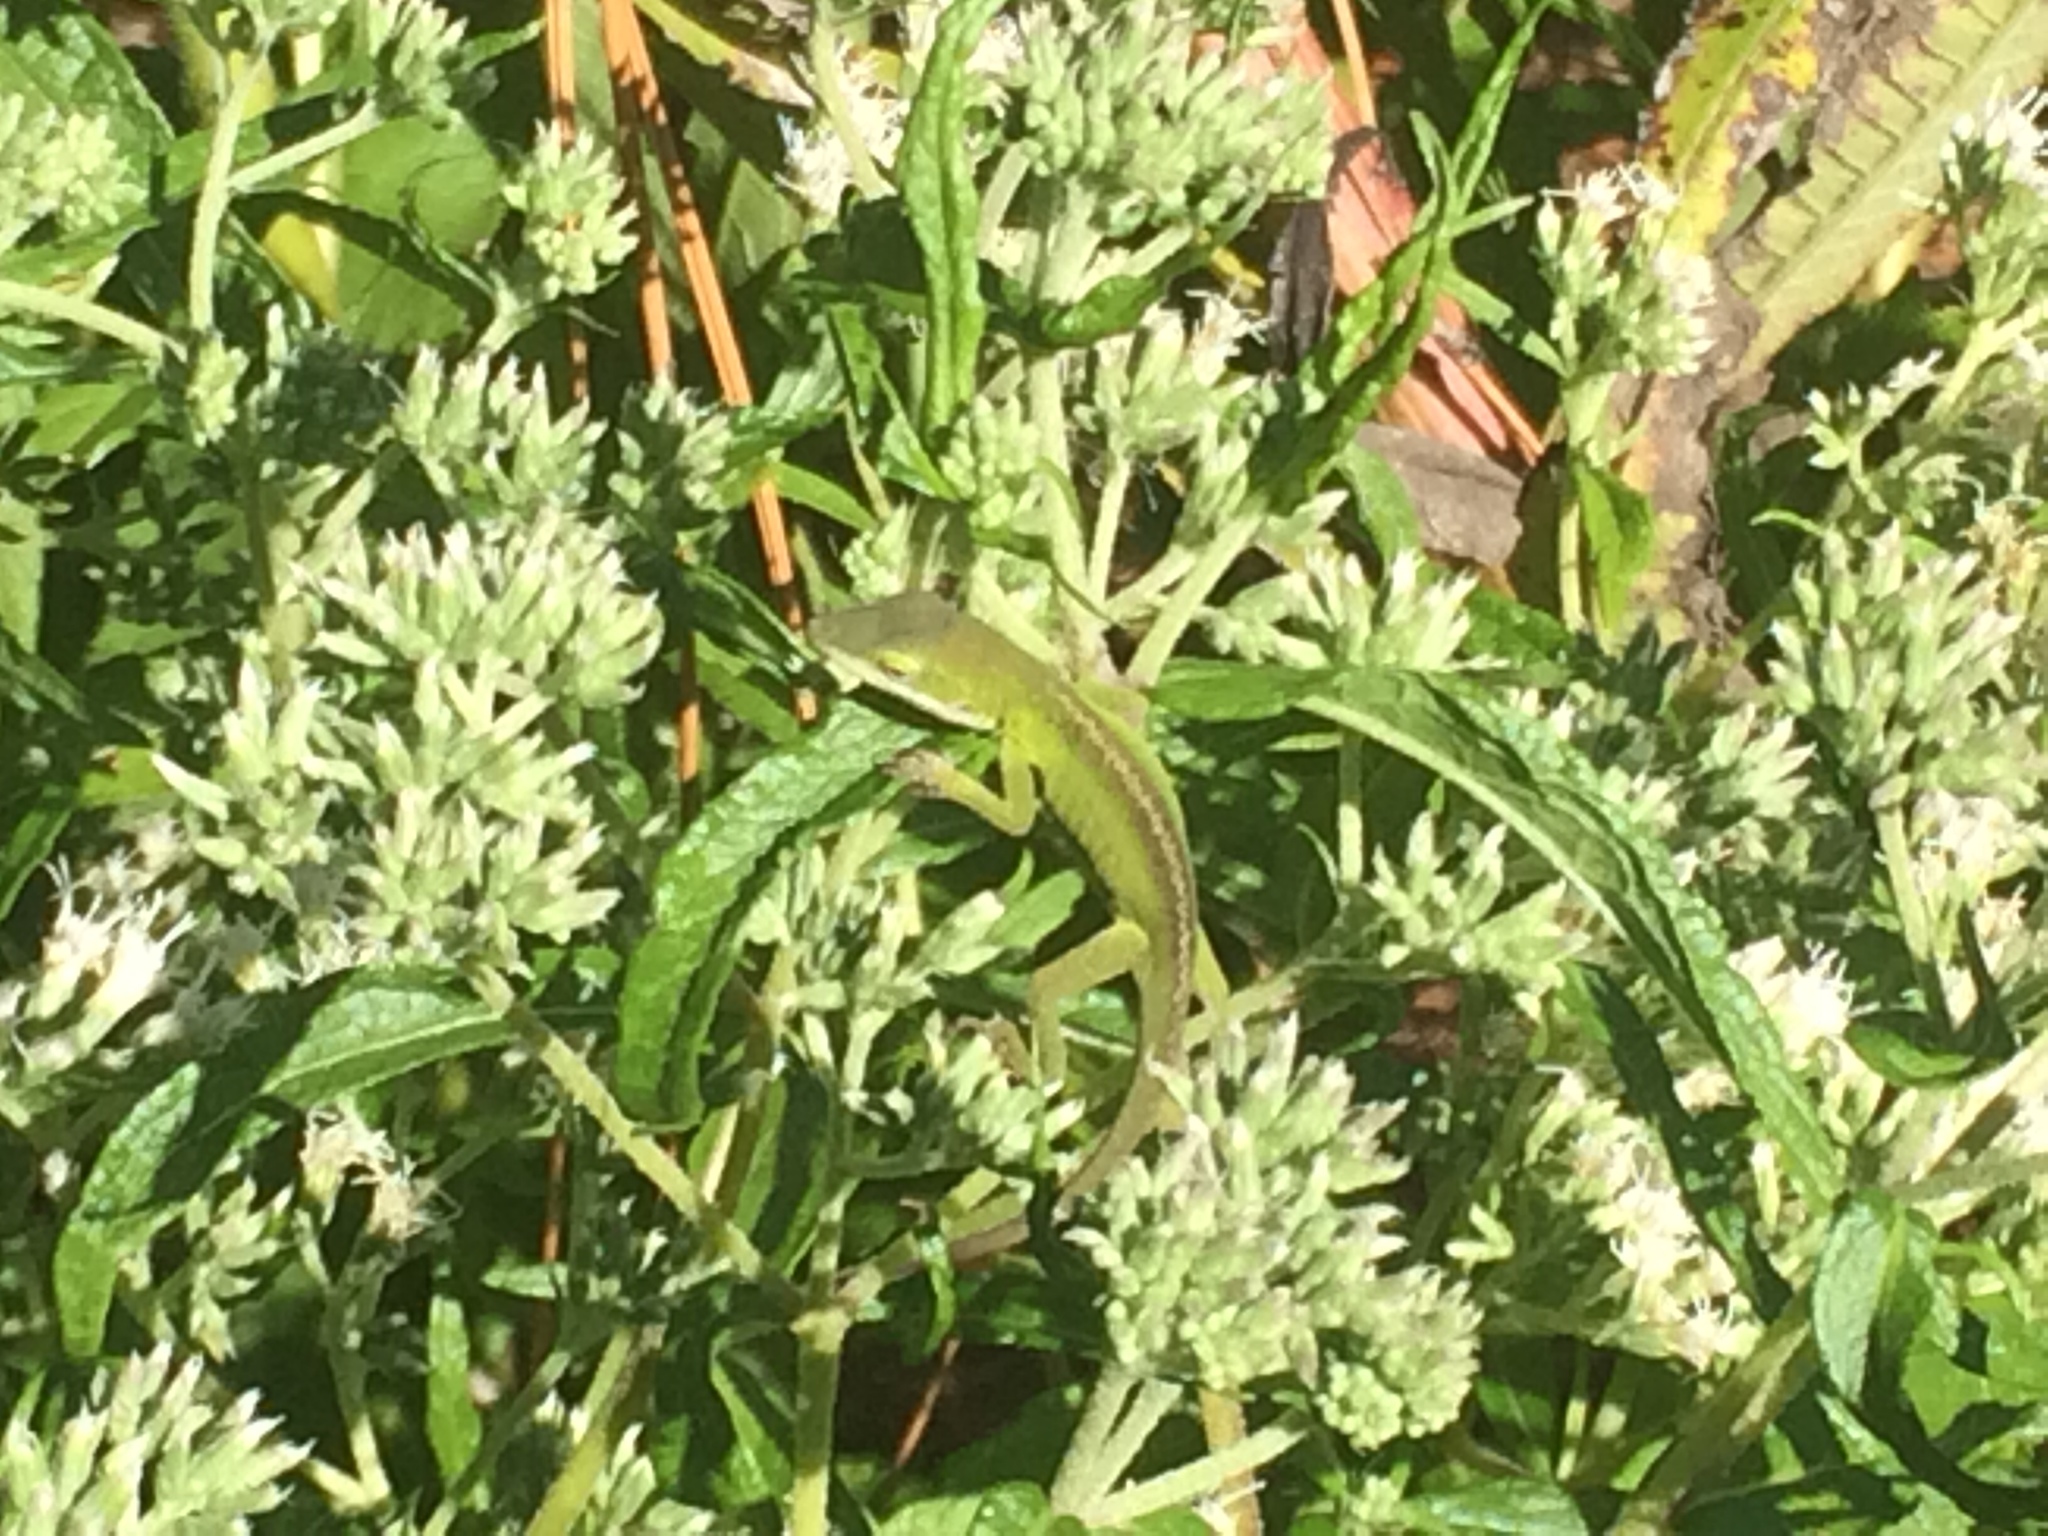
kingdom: Animalia
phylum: Chordata
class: Squamata
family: Dactyloidae
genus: Anolis
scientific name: Anolis carolinensis
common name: Green anole
